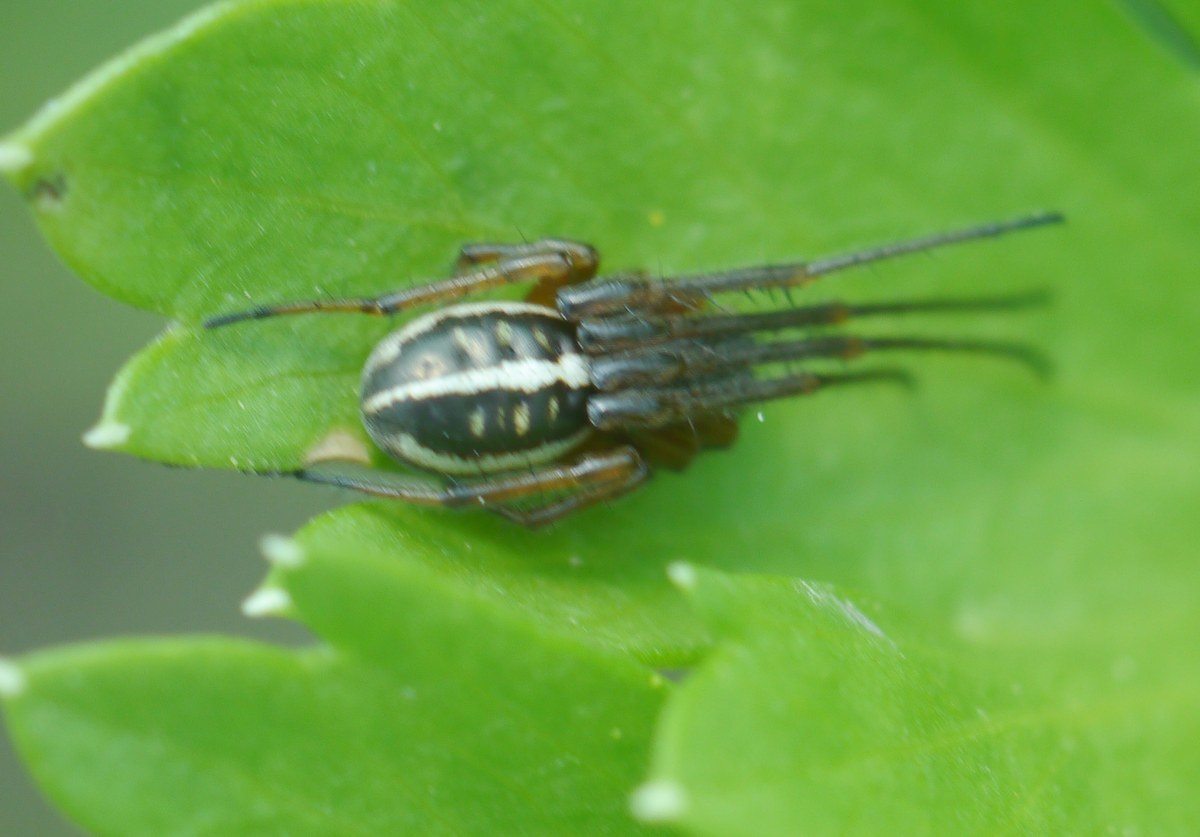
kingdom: Animalia
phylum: Arthropoda
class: Arachnida
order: Araneae
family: Araneidae
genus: Singa
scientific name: Singa nitidula
